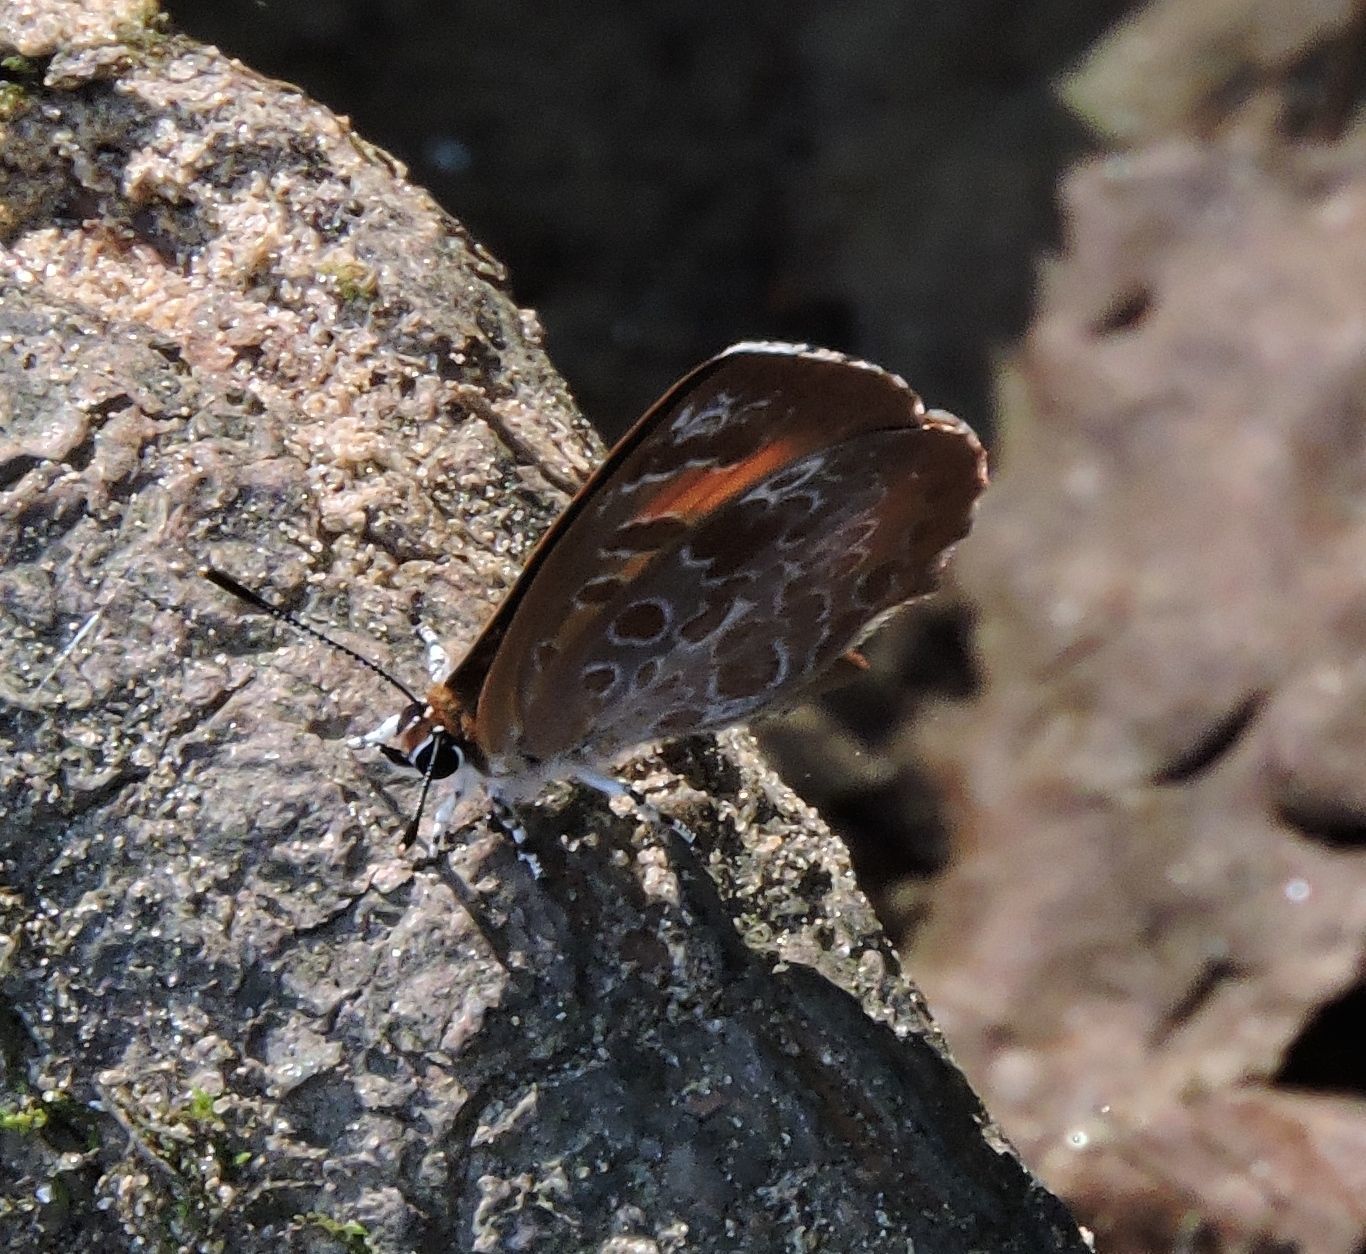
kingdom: Animalia
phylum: Arthropoda
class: Insecta
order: Lepidoptera
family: Lycaenidae
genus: Feniseca
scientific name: Feniseca tarquinius
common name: Harvester
